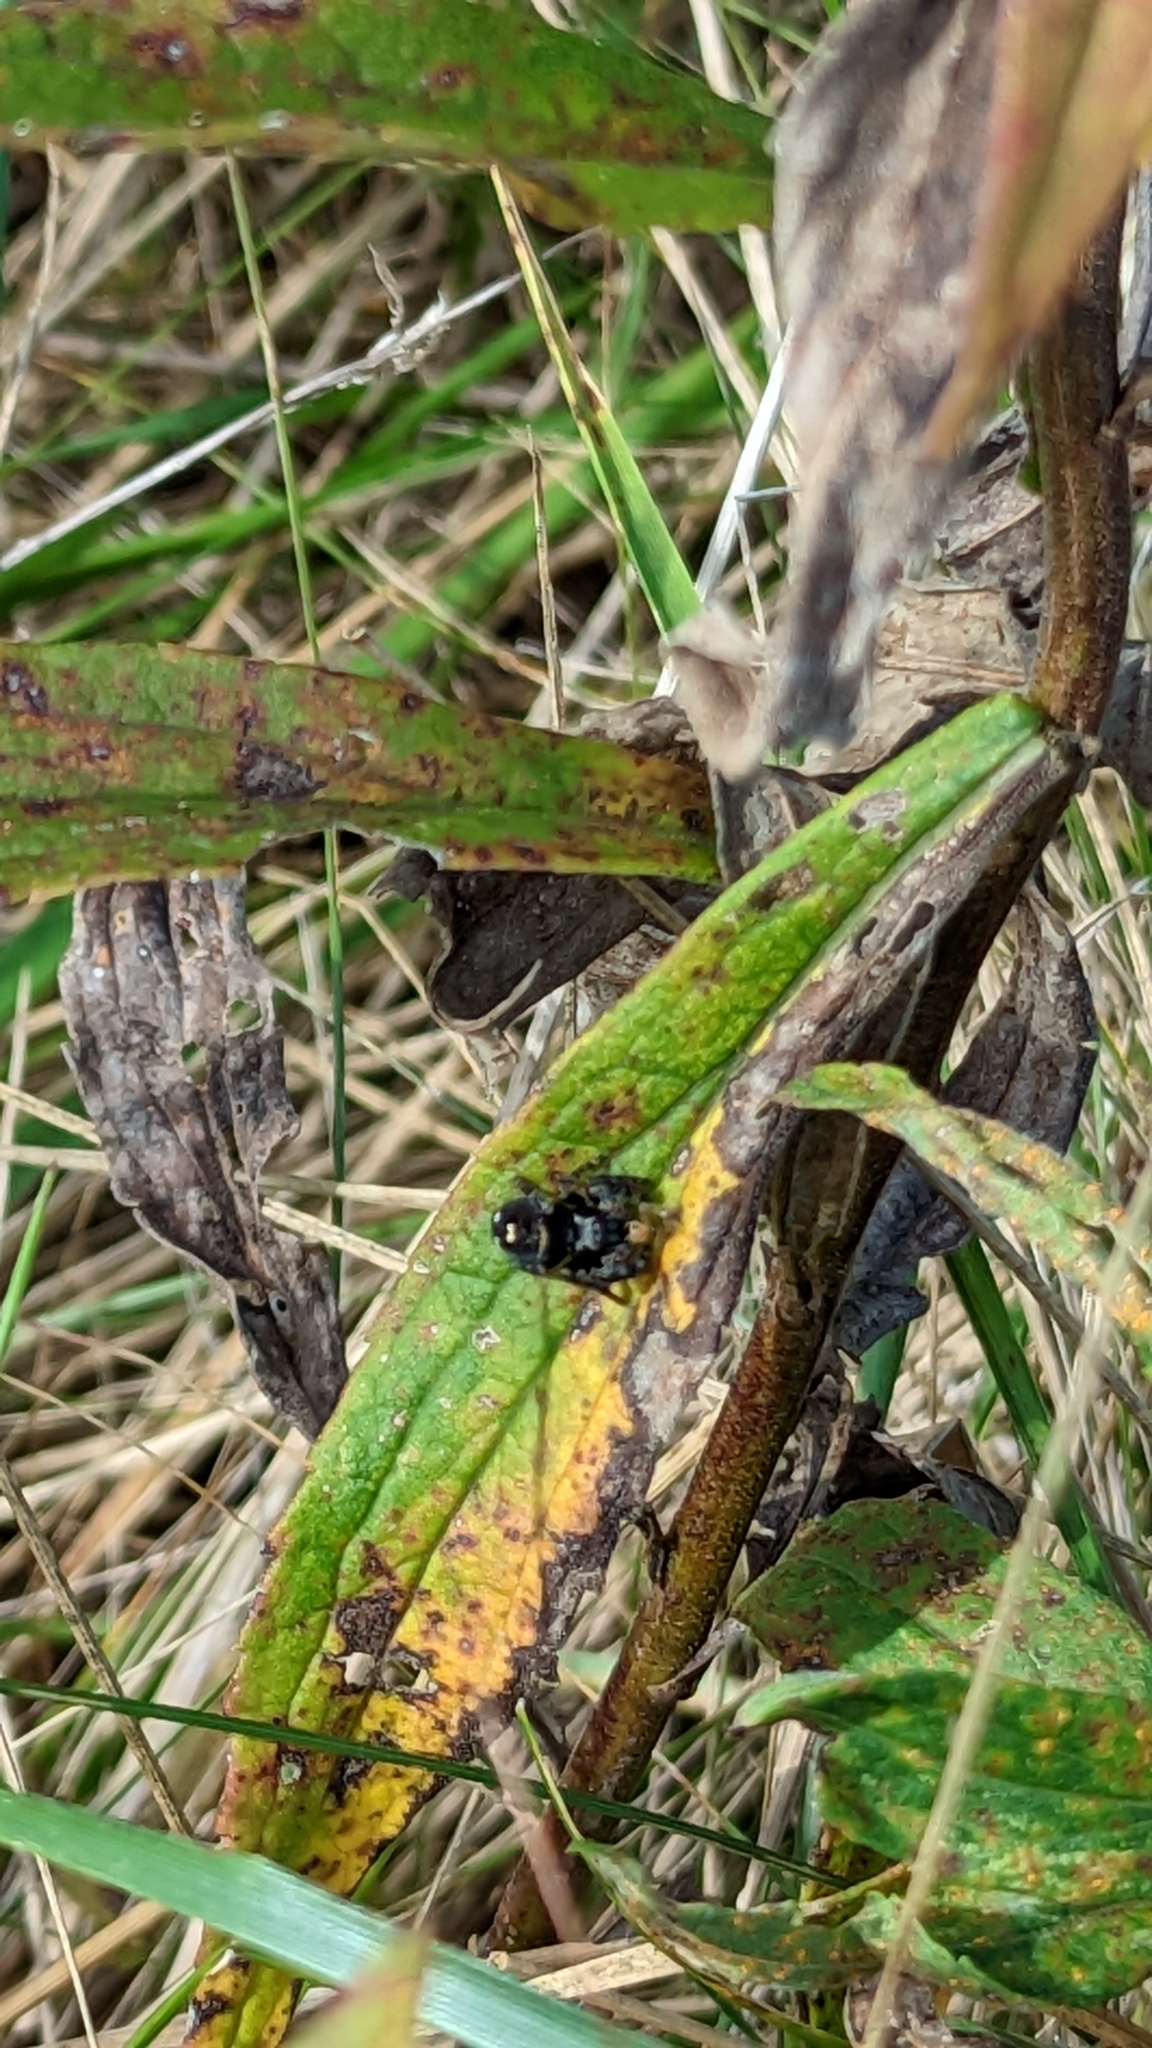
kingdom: Animalia
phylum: Arthropoda
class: Arachnida
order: Araneae
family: Salticidae
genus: Phidippus
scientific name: Phidippus audax
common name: Bold jumper
